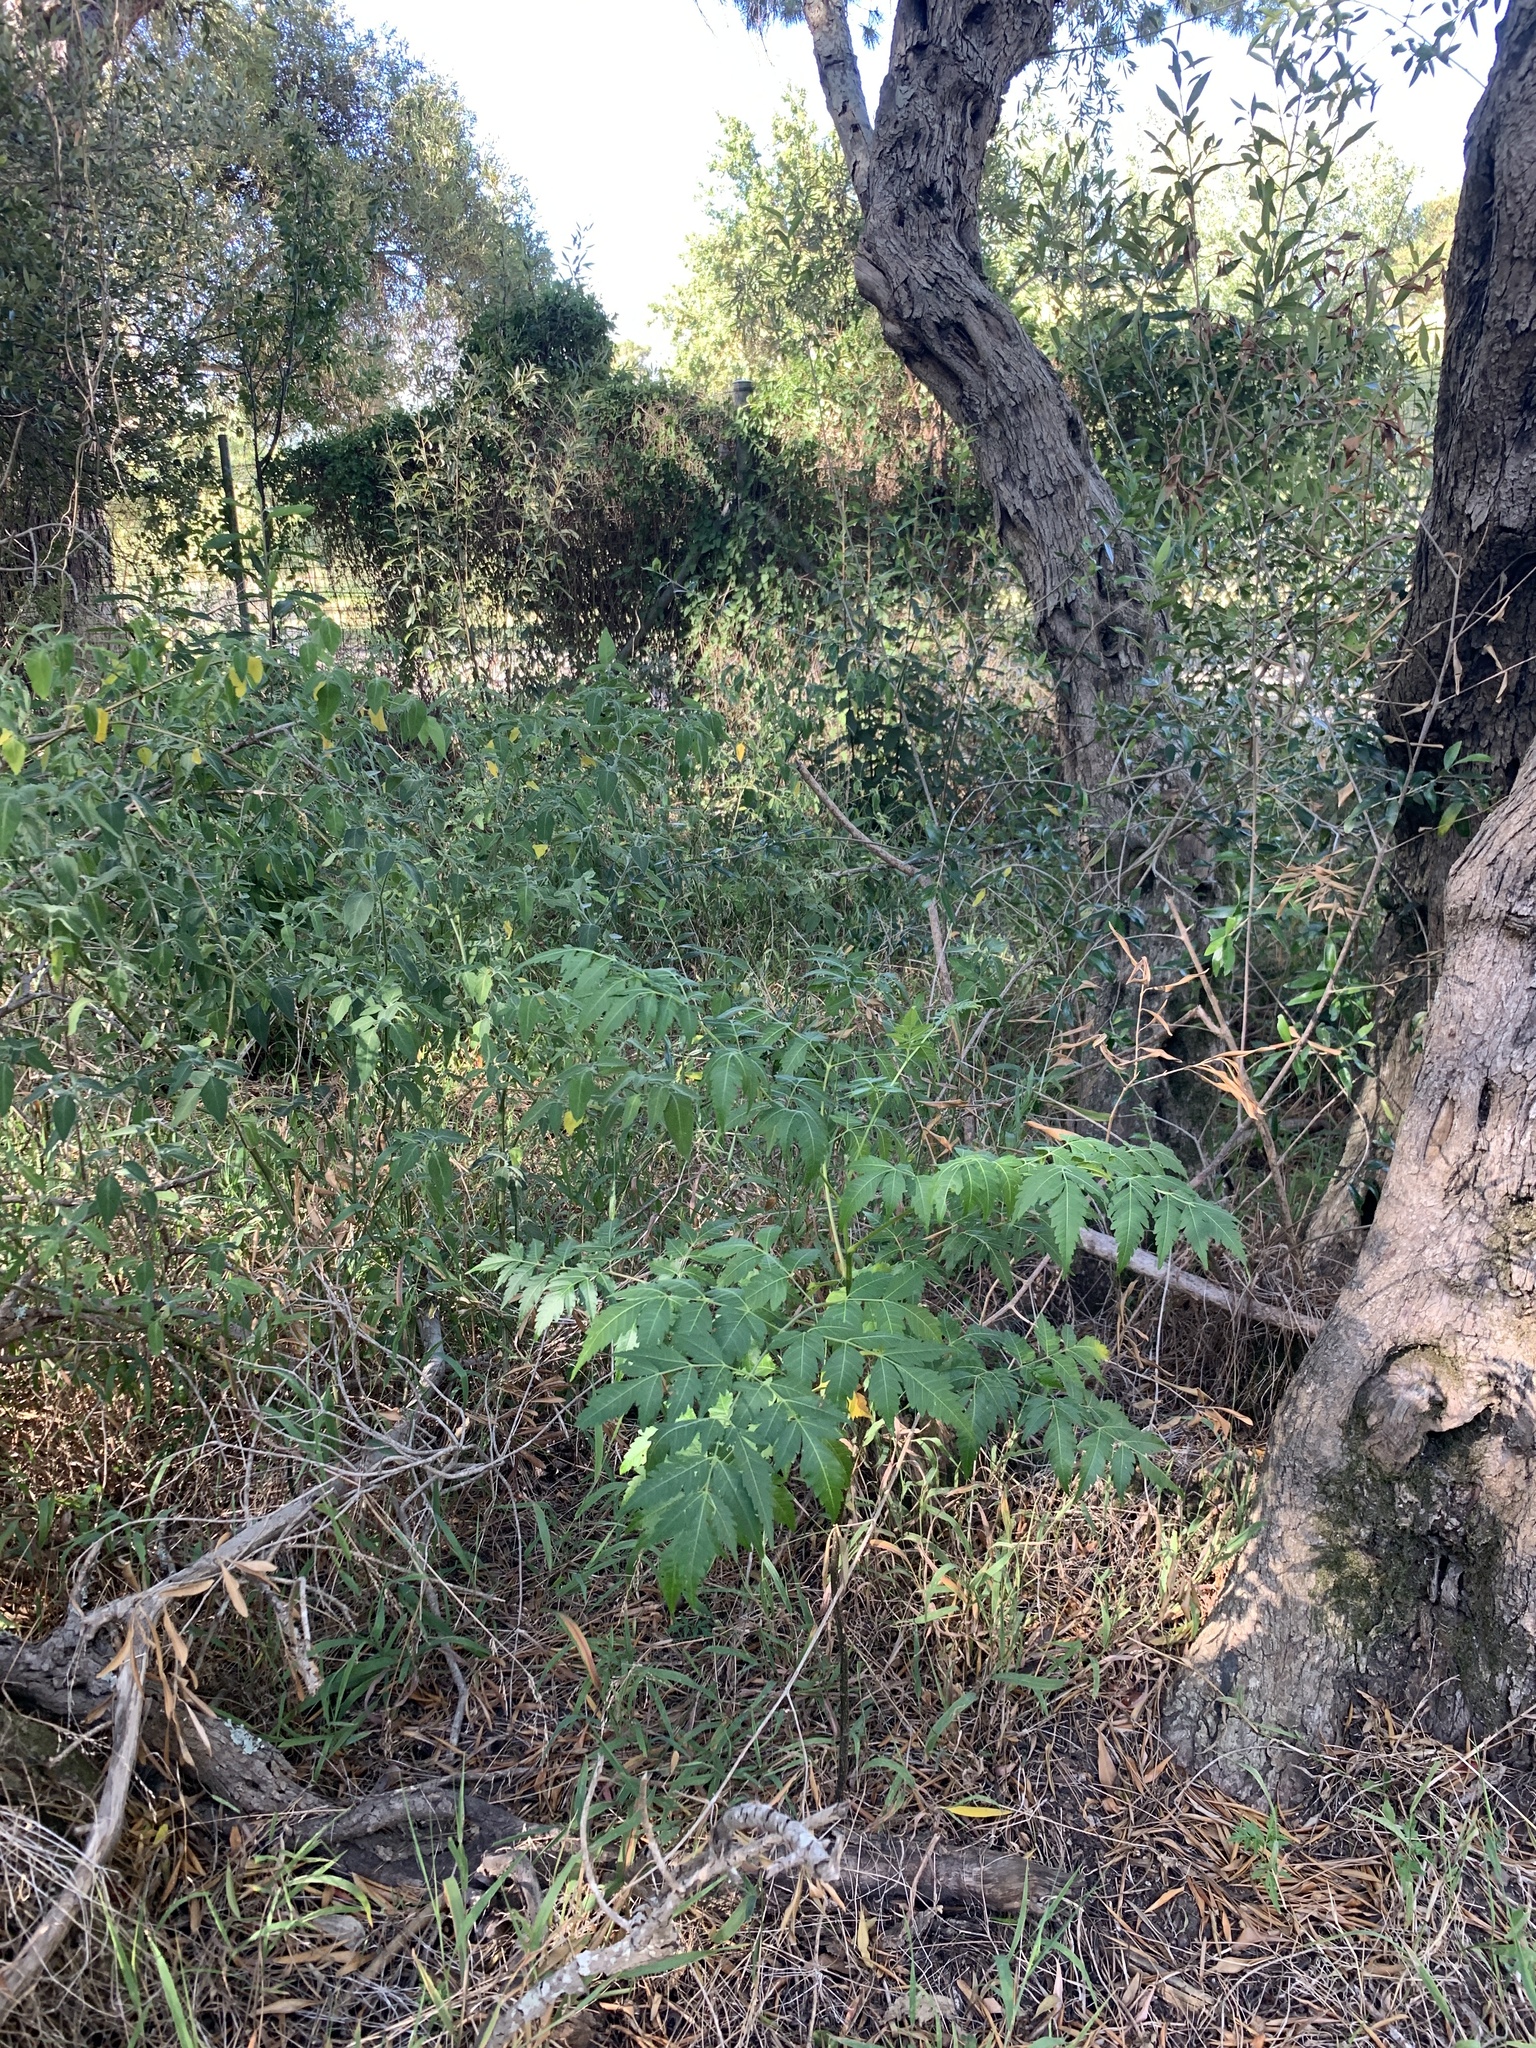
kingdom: Plantae
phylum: Tracheophyta
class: Magnoliopsida
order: Sapindales
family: Meliaceae
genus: Melia
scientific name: Melia azedarach
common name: Chinaberrytree
